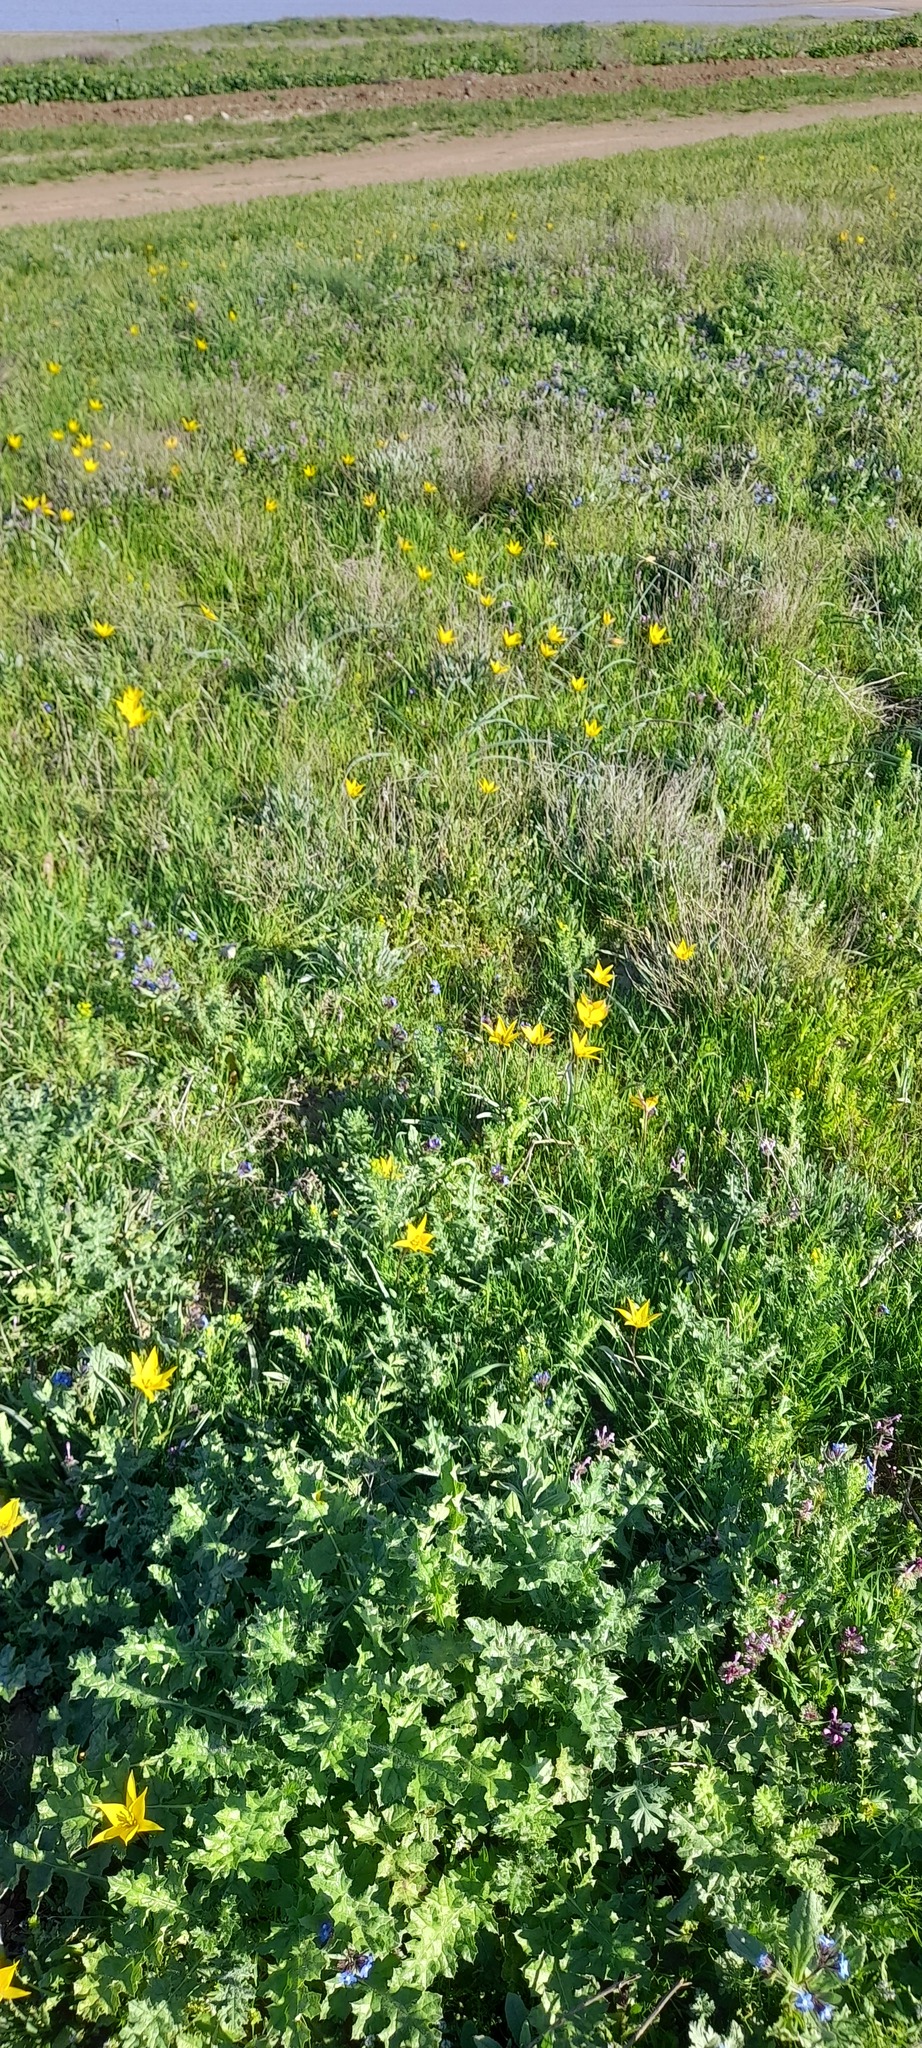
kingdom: Plantae
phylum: Tracheophyta
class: Liliopsida
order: Liliales
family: Liliaceae
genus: Tulipa
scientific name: Tulipa sylvestris
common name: Wild tulip
